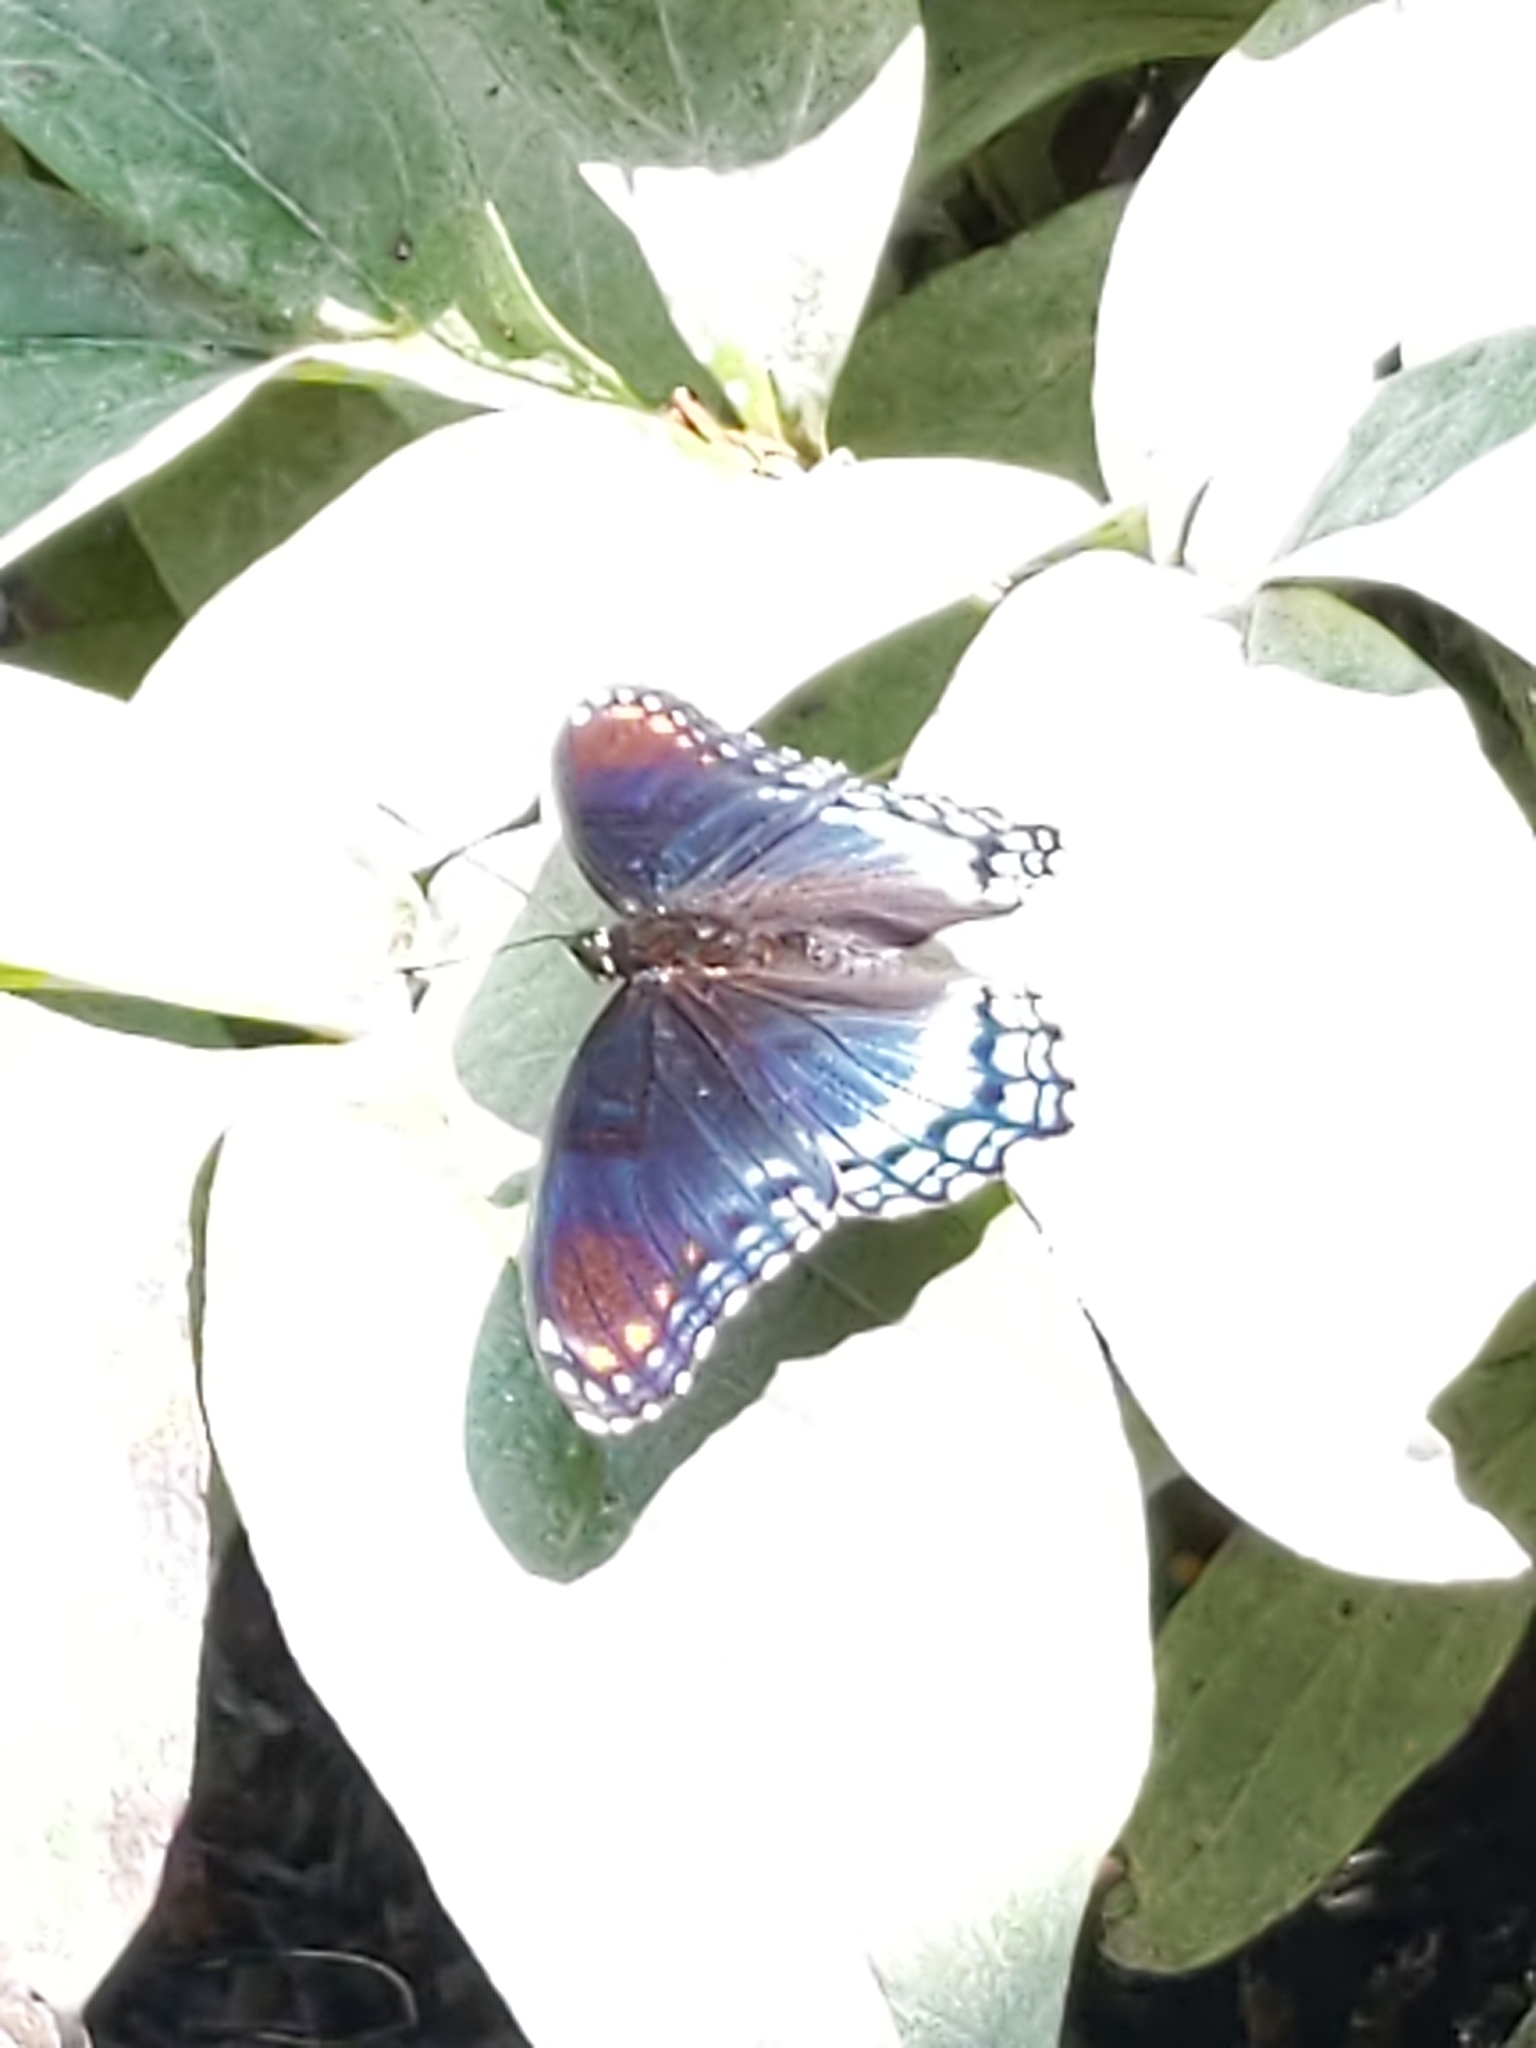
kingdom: Animalia
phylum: Arthropoda
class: Insecta
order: Lepidoptera
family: Nymphalidae
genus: Limenitis
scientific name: Limenitis arthemis
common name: Red-spotted admiral
